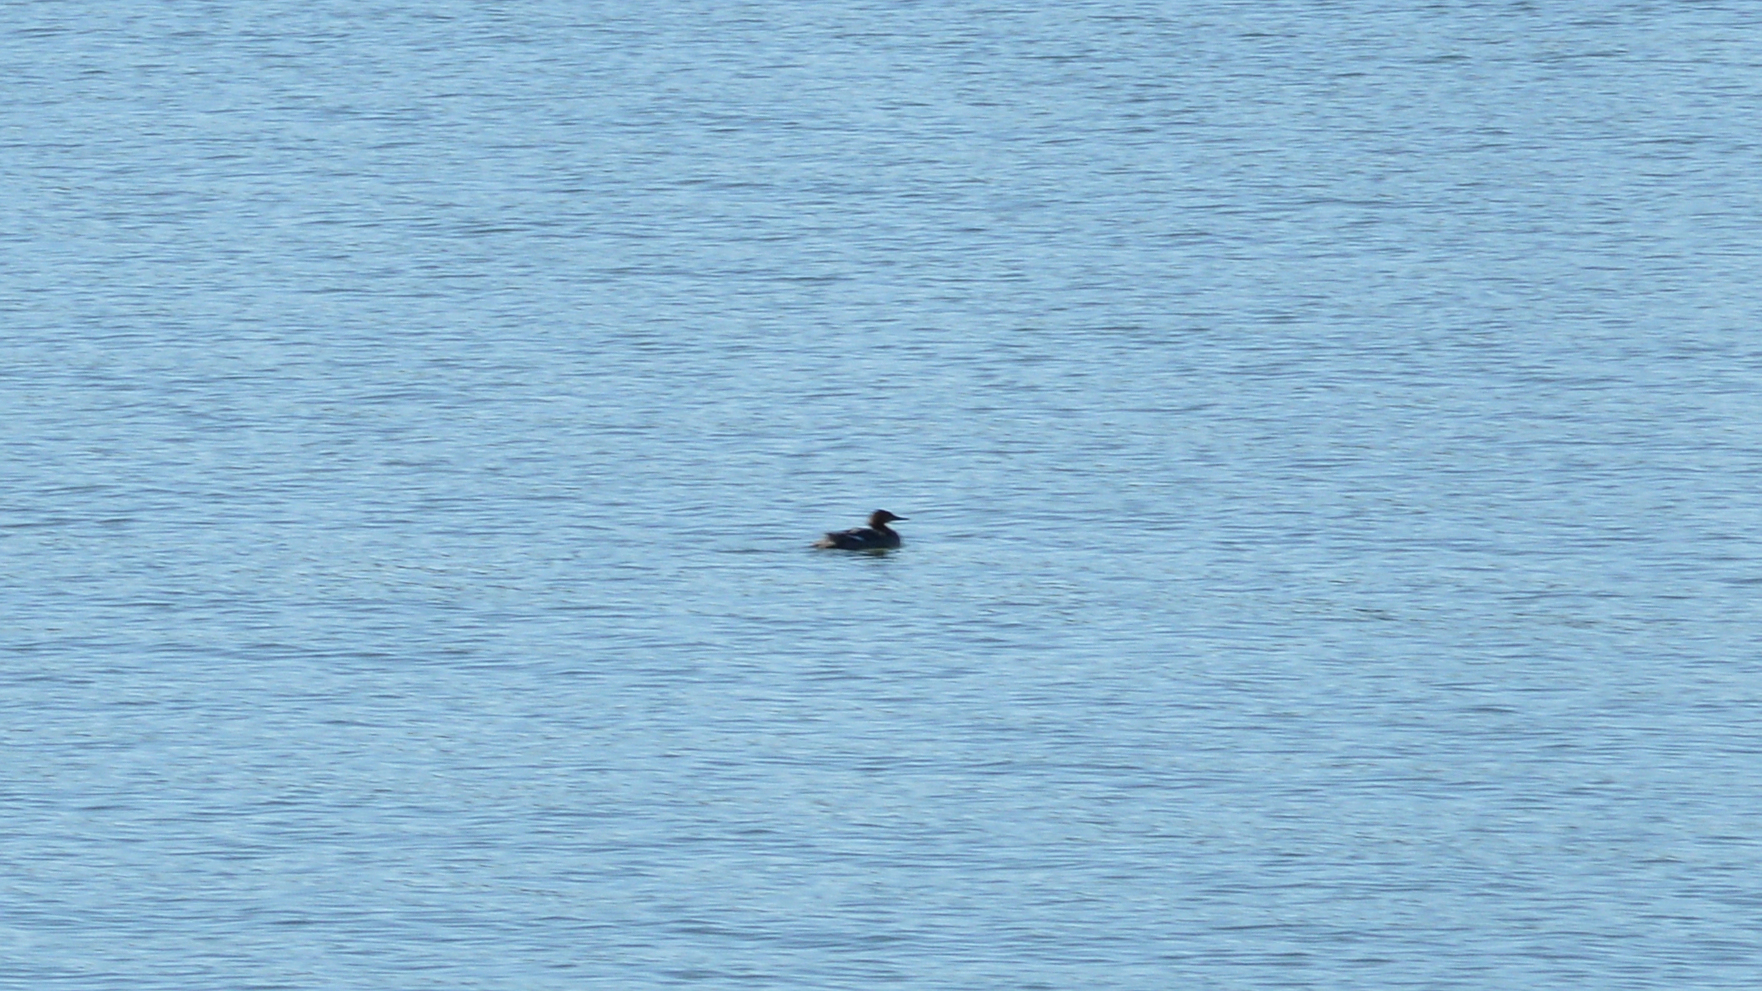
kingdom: Animalia
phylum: Chordata
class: Aves
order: Anseriformes
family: Anatidae
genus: Mergus
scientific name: Mergus merganser
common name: Common merganser
